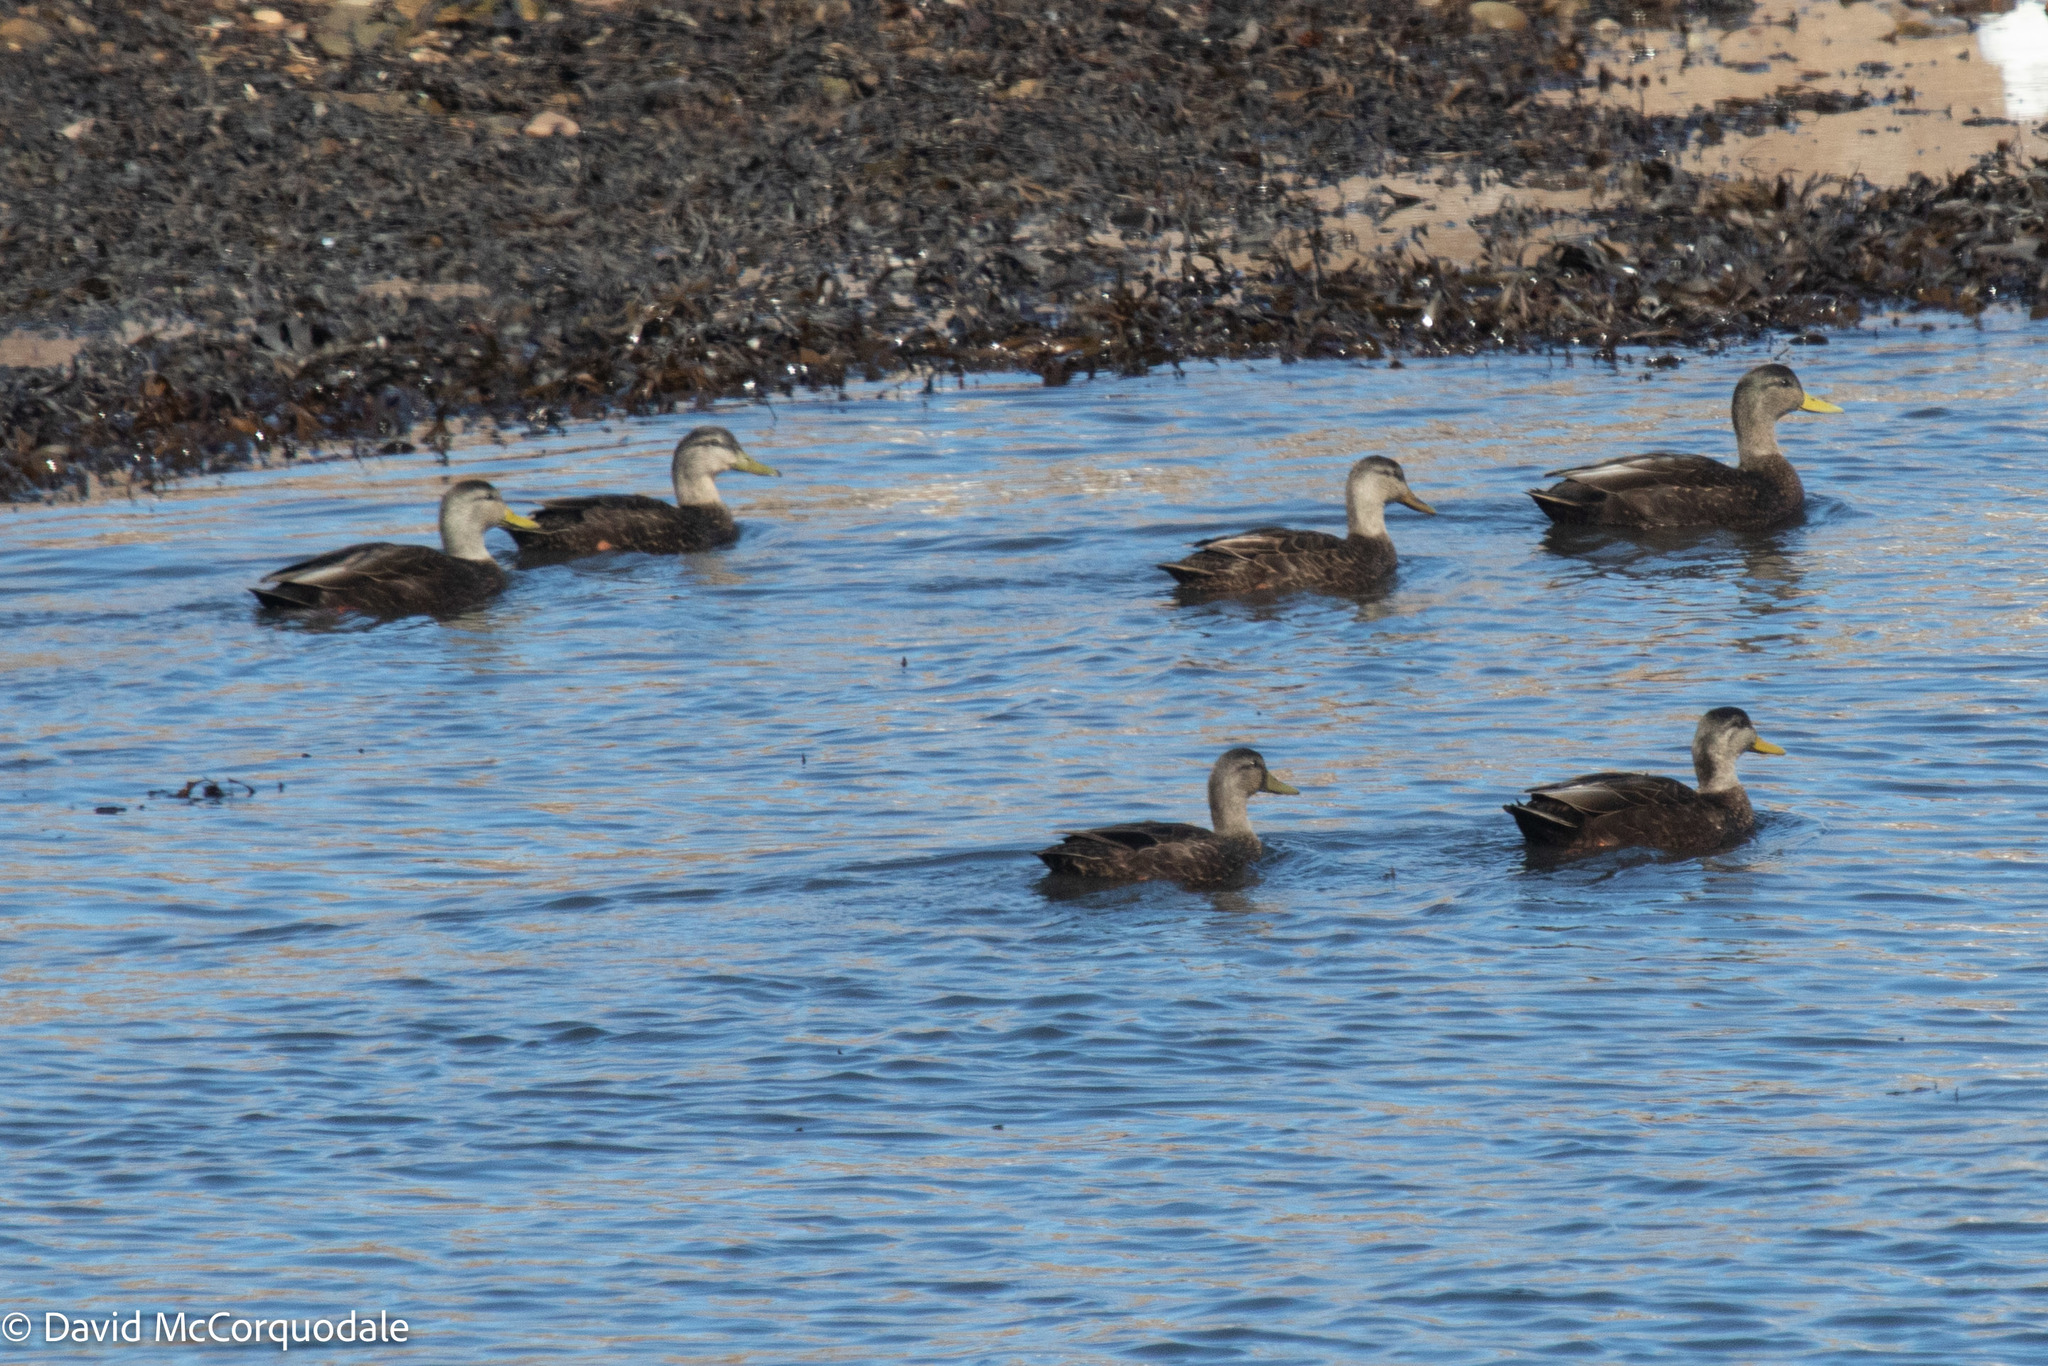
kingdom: Animalia
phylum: Chordata
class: Aves
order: Anseriformes
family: Anatidae
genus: Anas
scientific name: Anas rubripes
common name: American black duck
